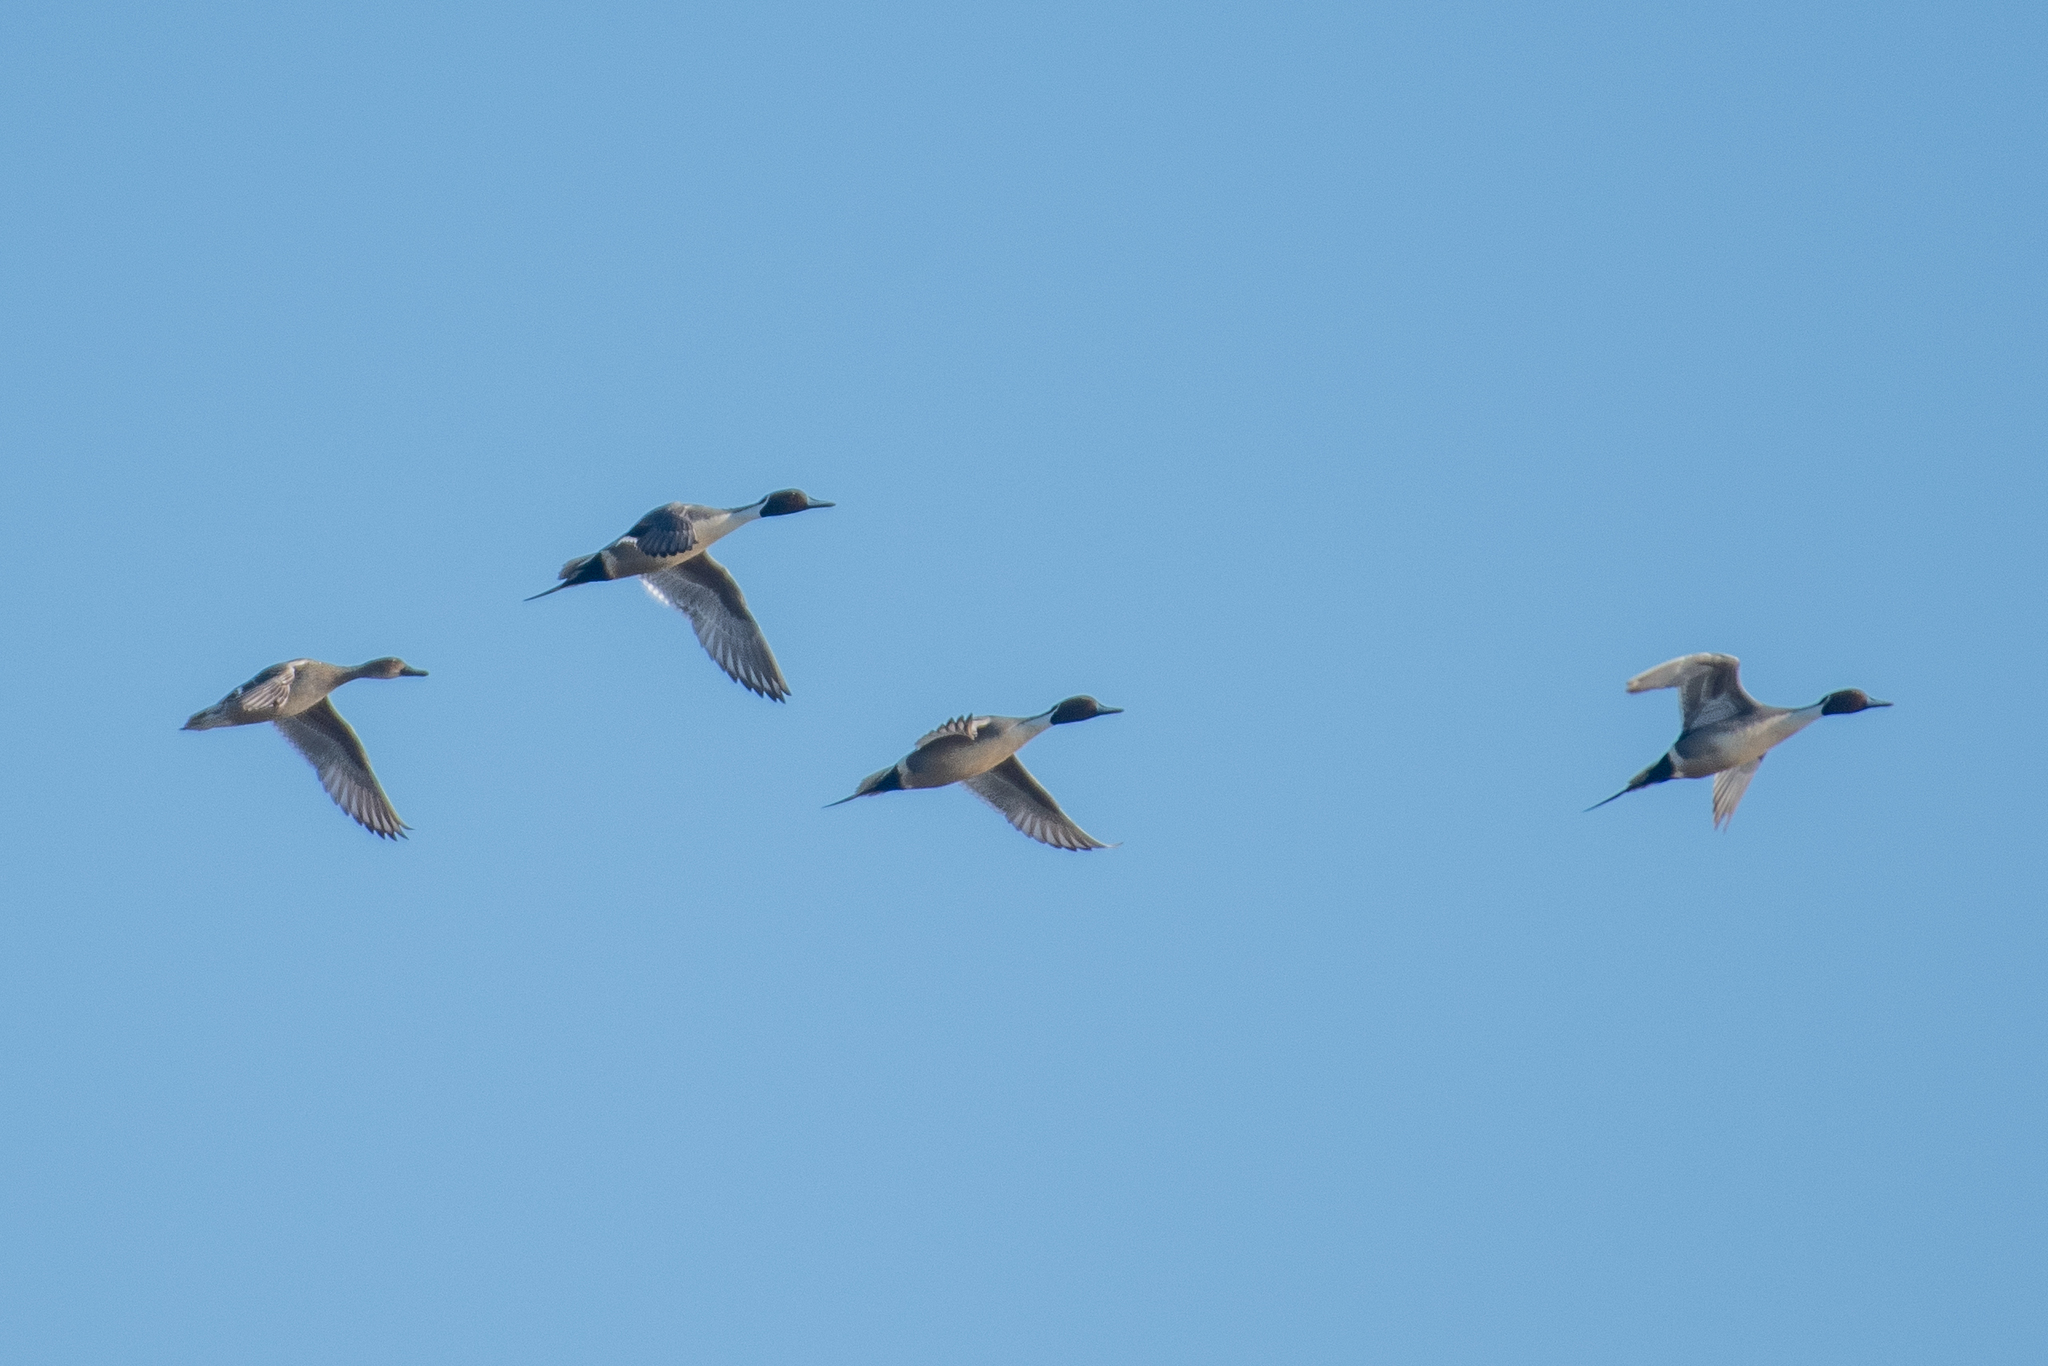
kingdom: Animalia
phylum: Chordata
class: Aves
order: Anseriformes
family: Anatidae
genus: Anas
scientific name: Anas acuta
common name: Northern pintail
